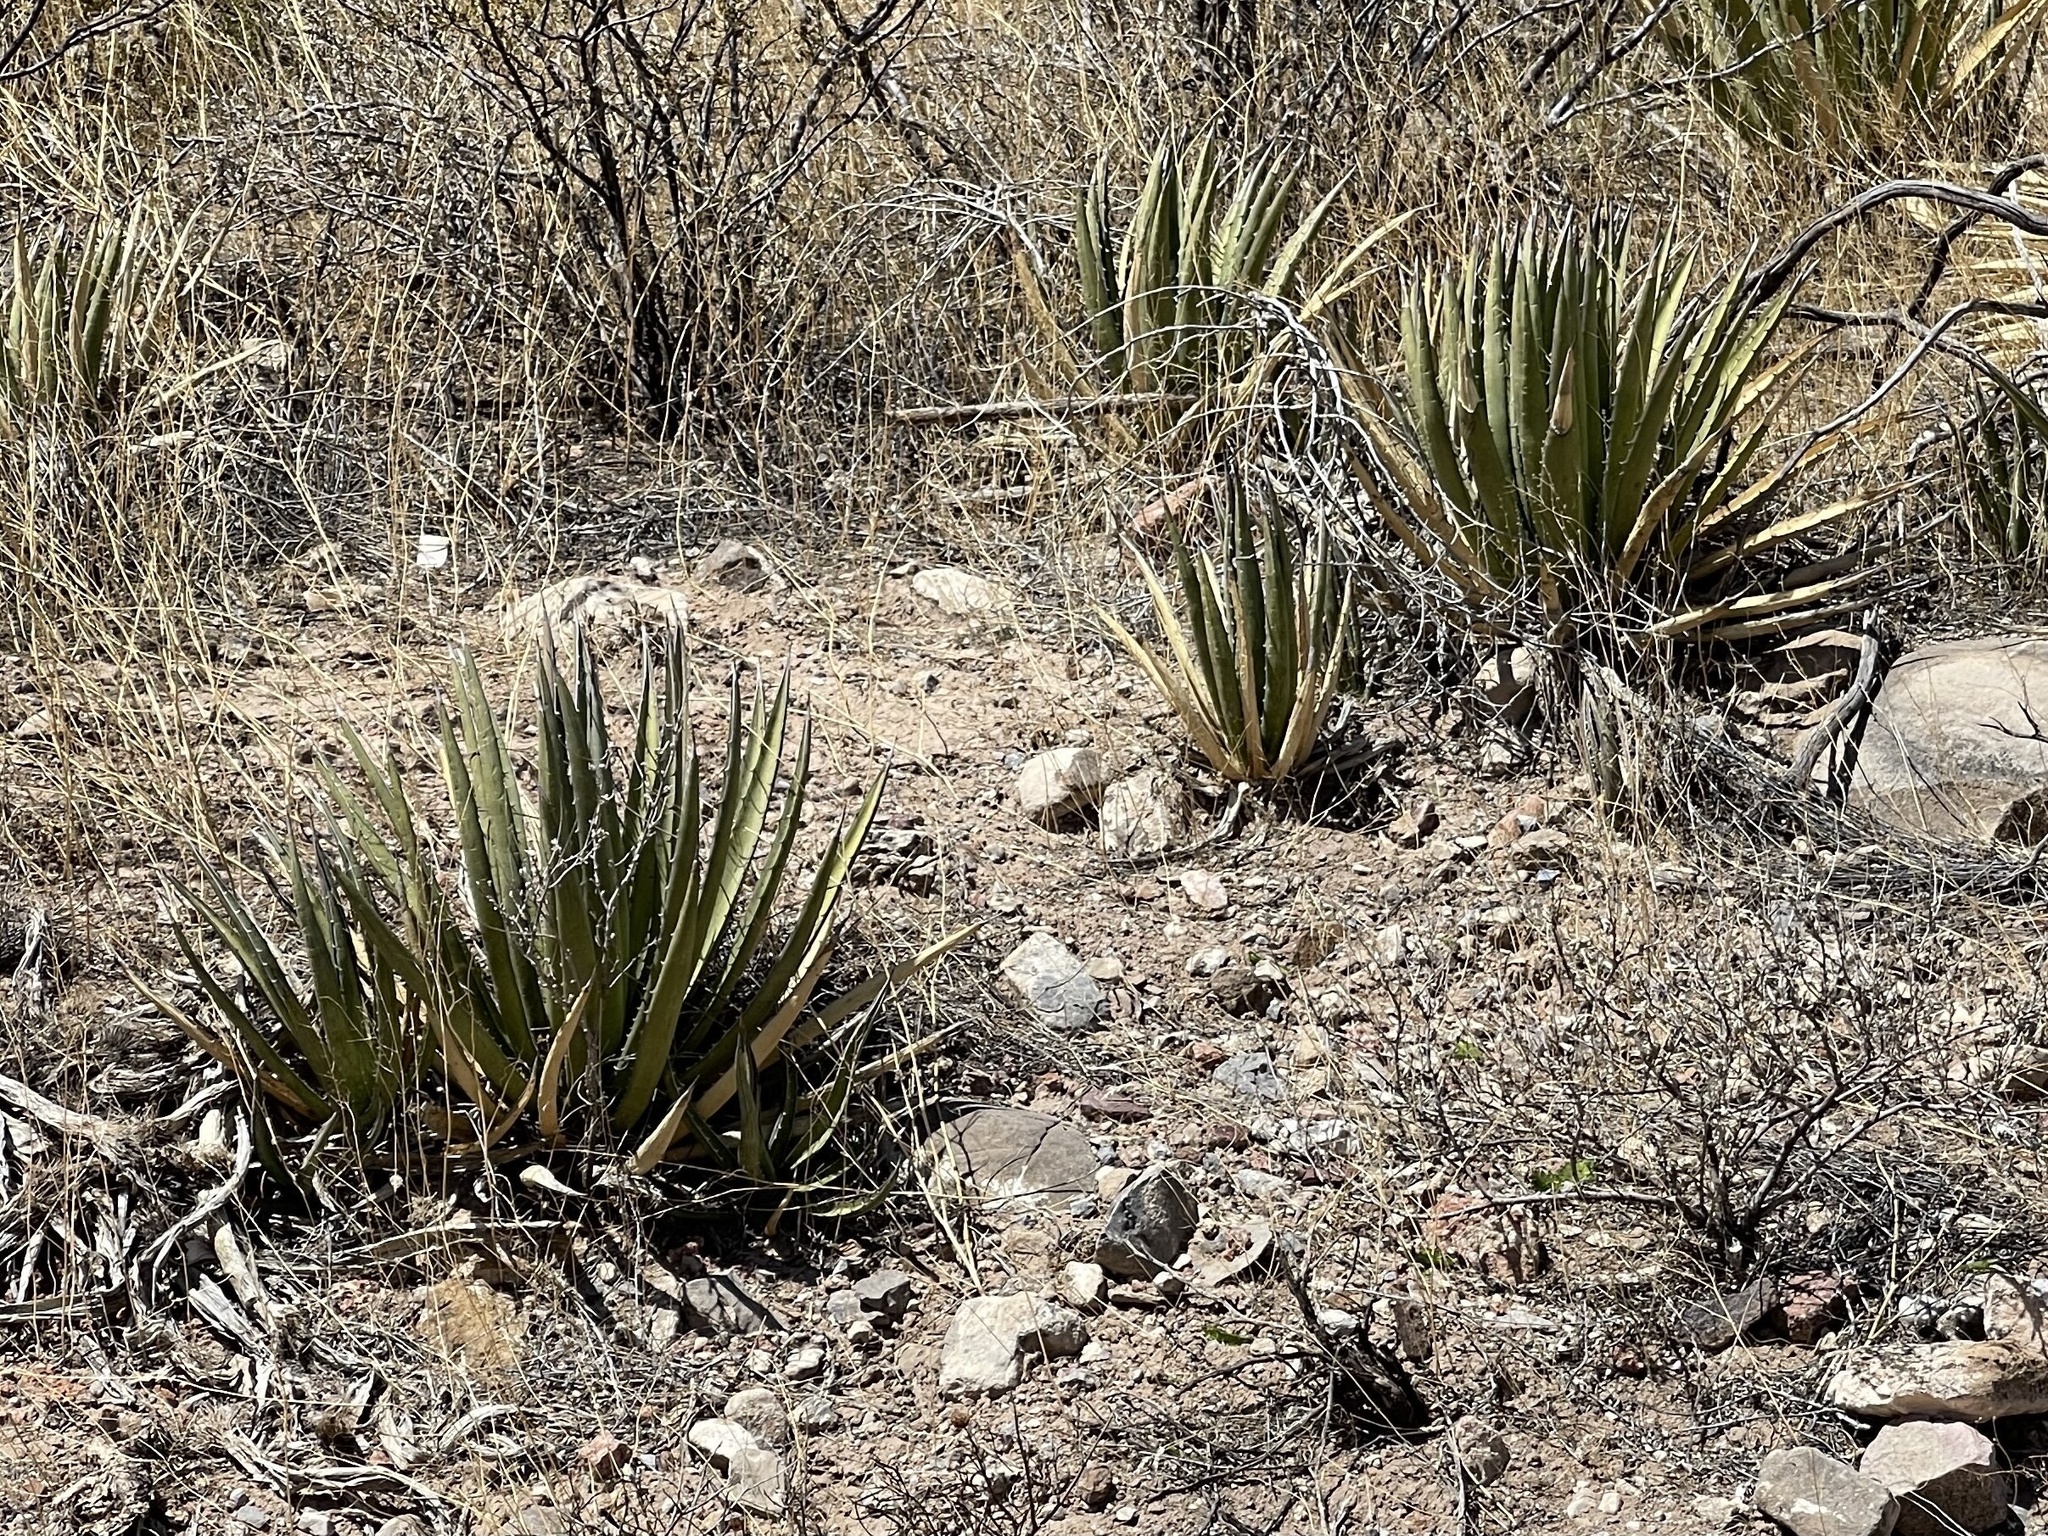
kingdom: Plantae
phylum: Tracheophyta
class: Liliopsida
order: Asparagales
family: Asparagaceae
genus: Agave
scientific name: Agave lechuguilla
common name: Lecheguilla agave
